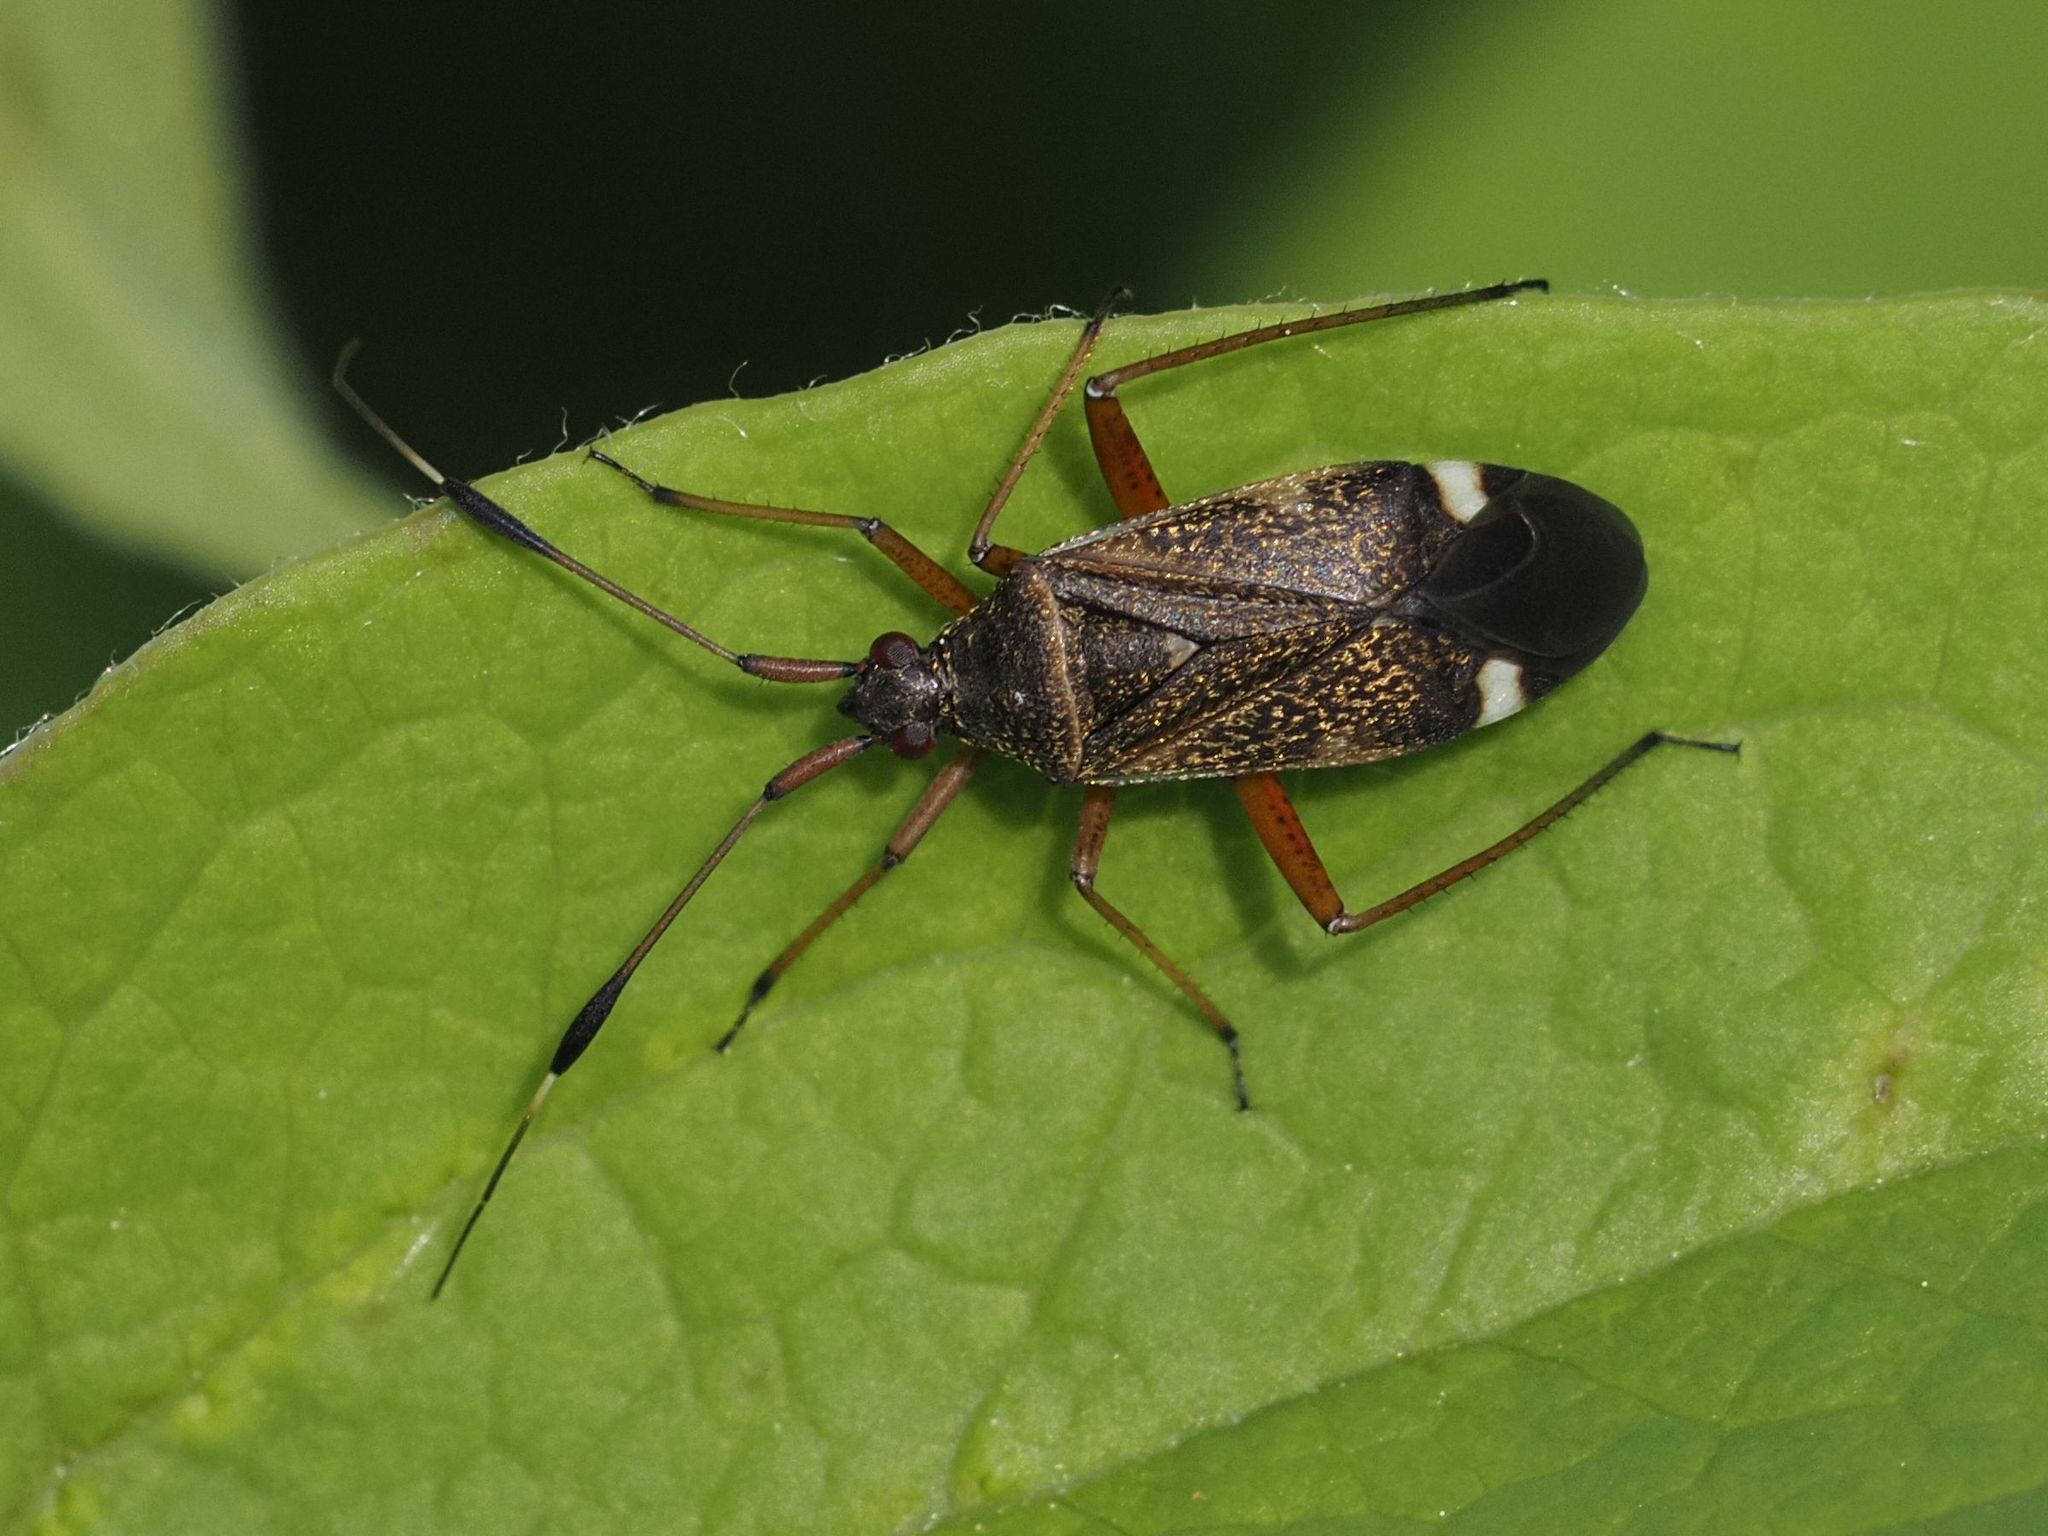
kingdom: Animalia
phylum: Arthropoda
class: Insecta
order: Hemiptera
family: Miridae
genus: Closterotomus
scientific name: Closterotomus biclavatus
